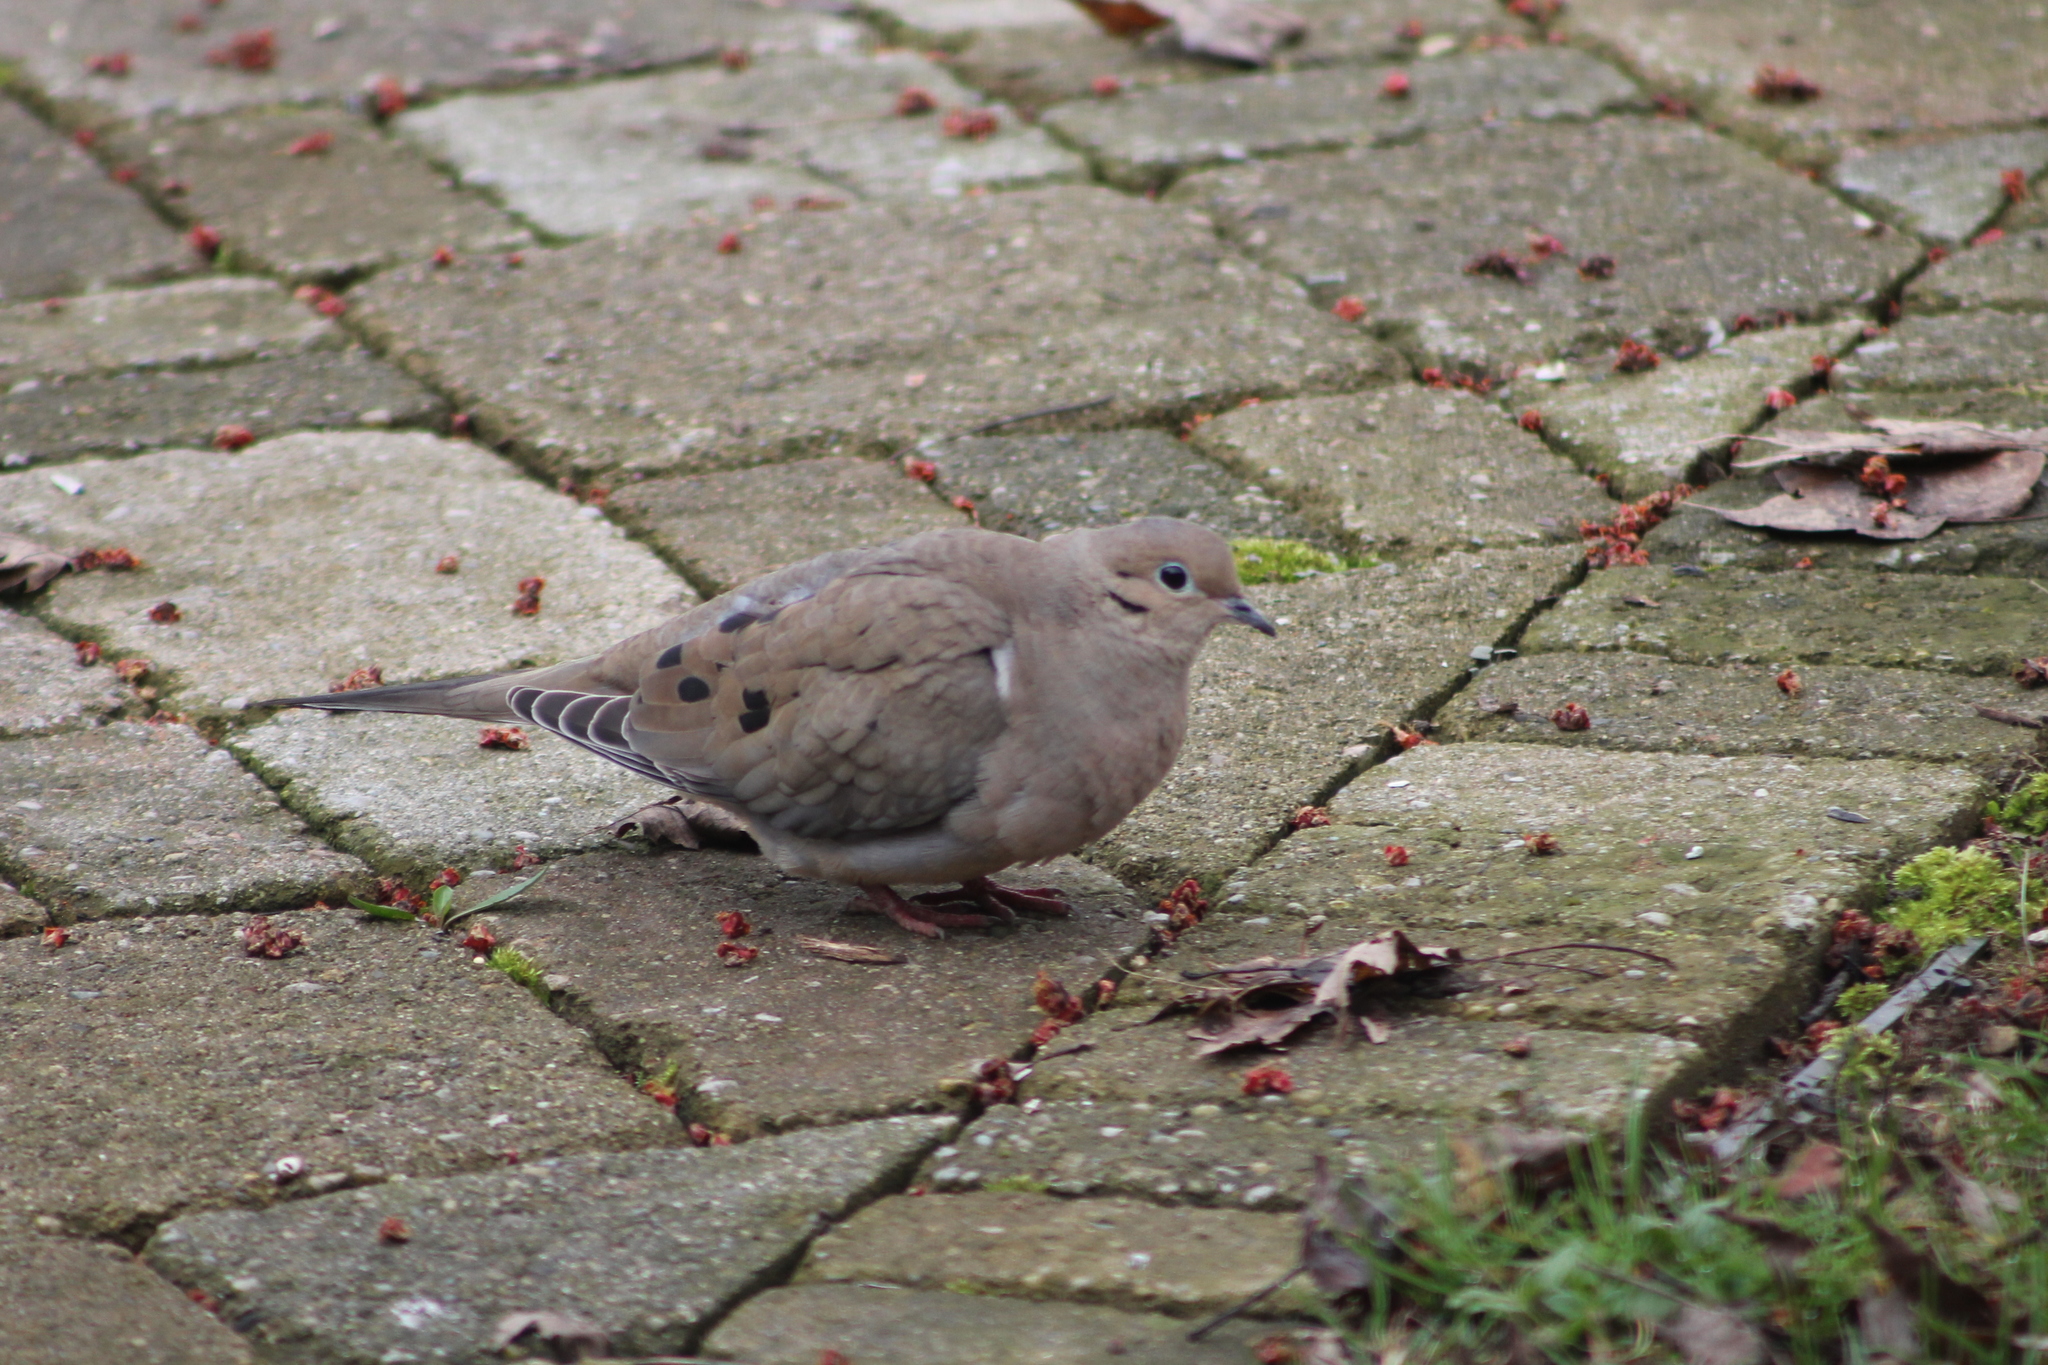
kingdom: Animalia
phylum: Chordata
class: Aves
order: Columbiformes
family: Columbidae
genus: Zenaida
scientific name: Zenaida macroura
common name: Mourning dove
